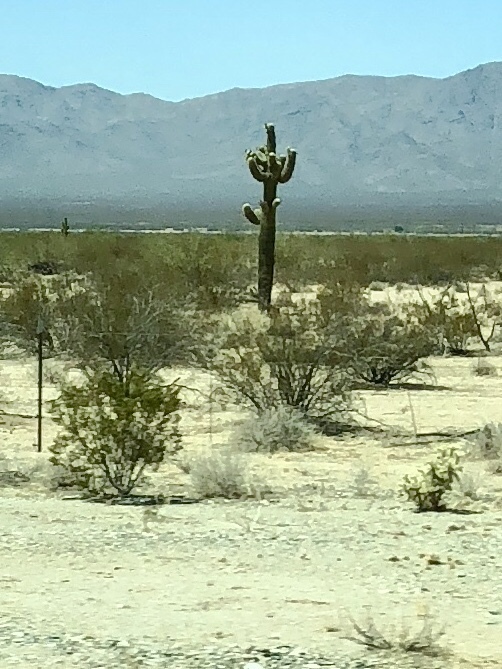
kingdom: Plantae
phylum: Tracheophyta
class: Magnoliopsida
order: Caryophyllales
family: Cactaceae
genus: Carnegiea
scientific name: Carnegiea gigantea
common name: Saguaro
